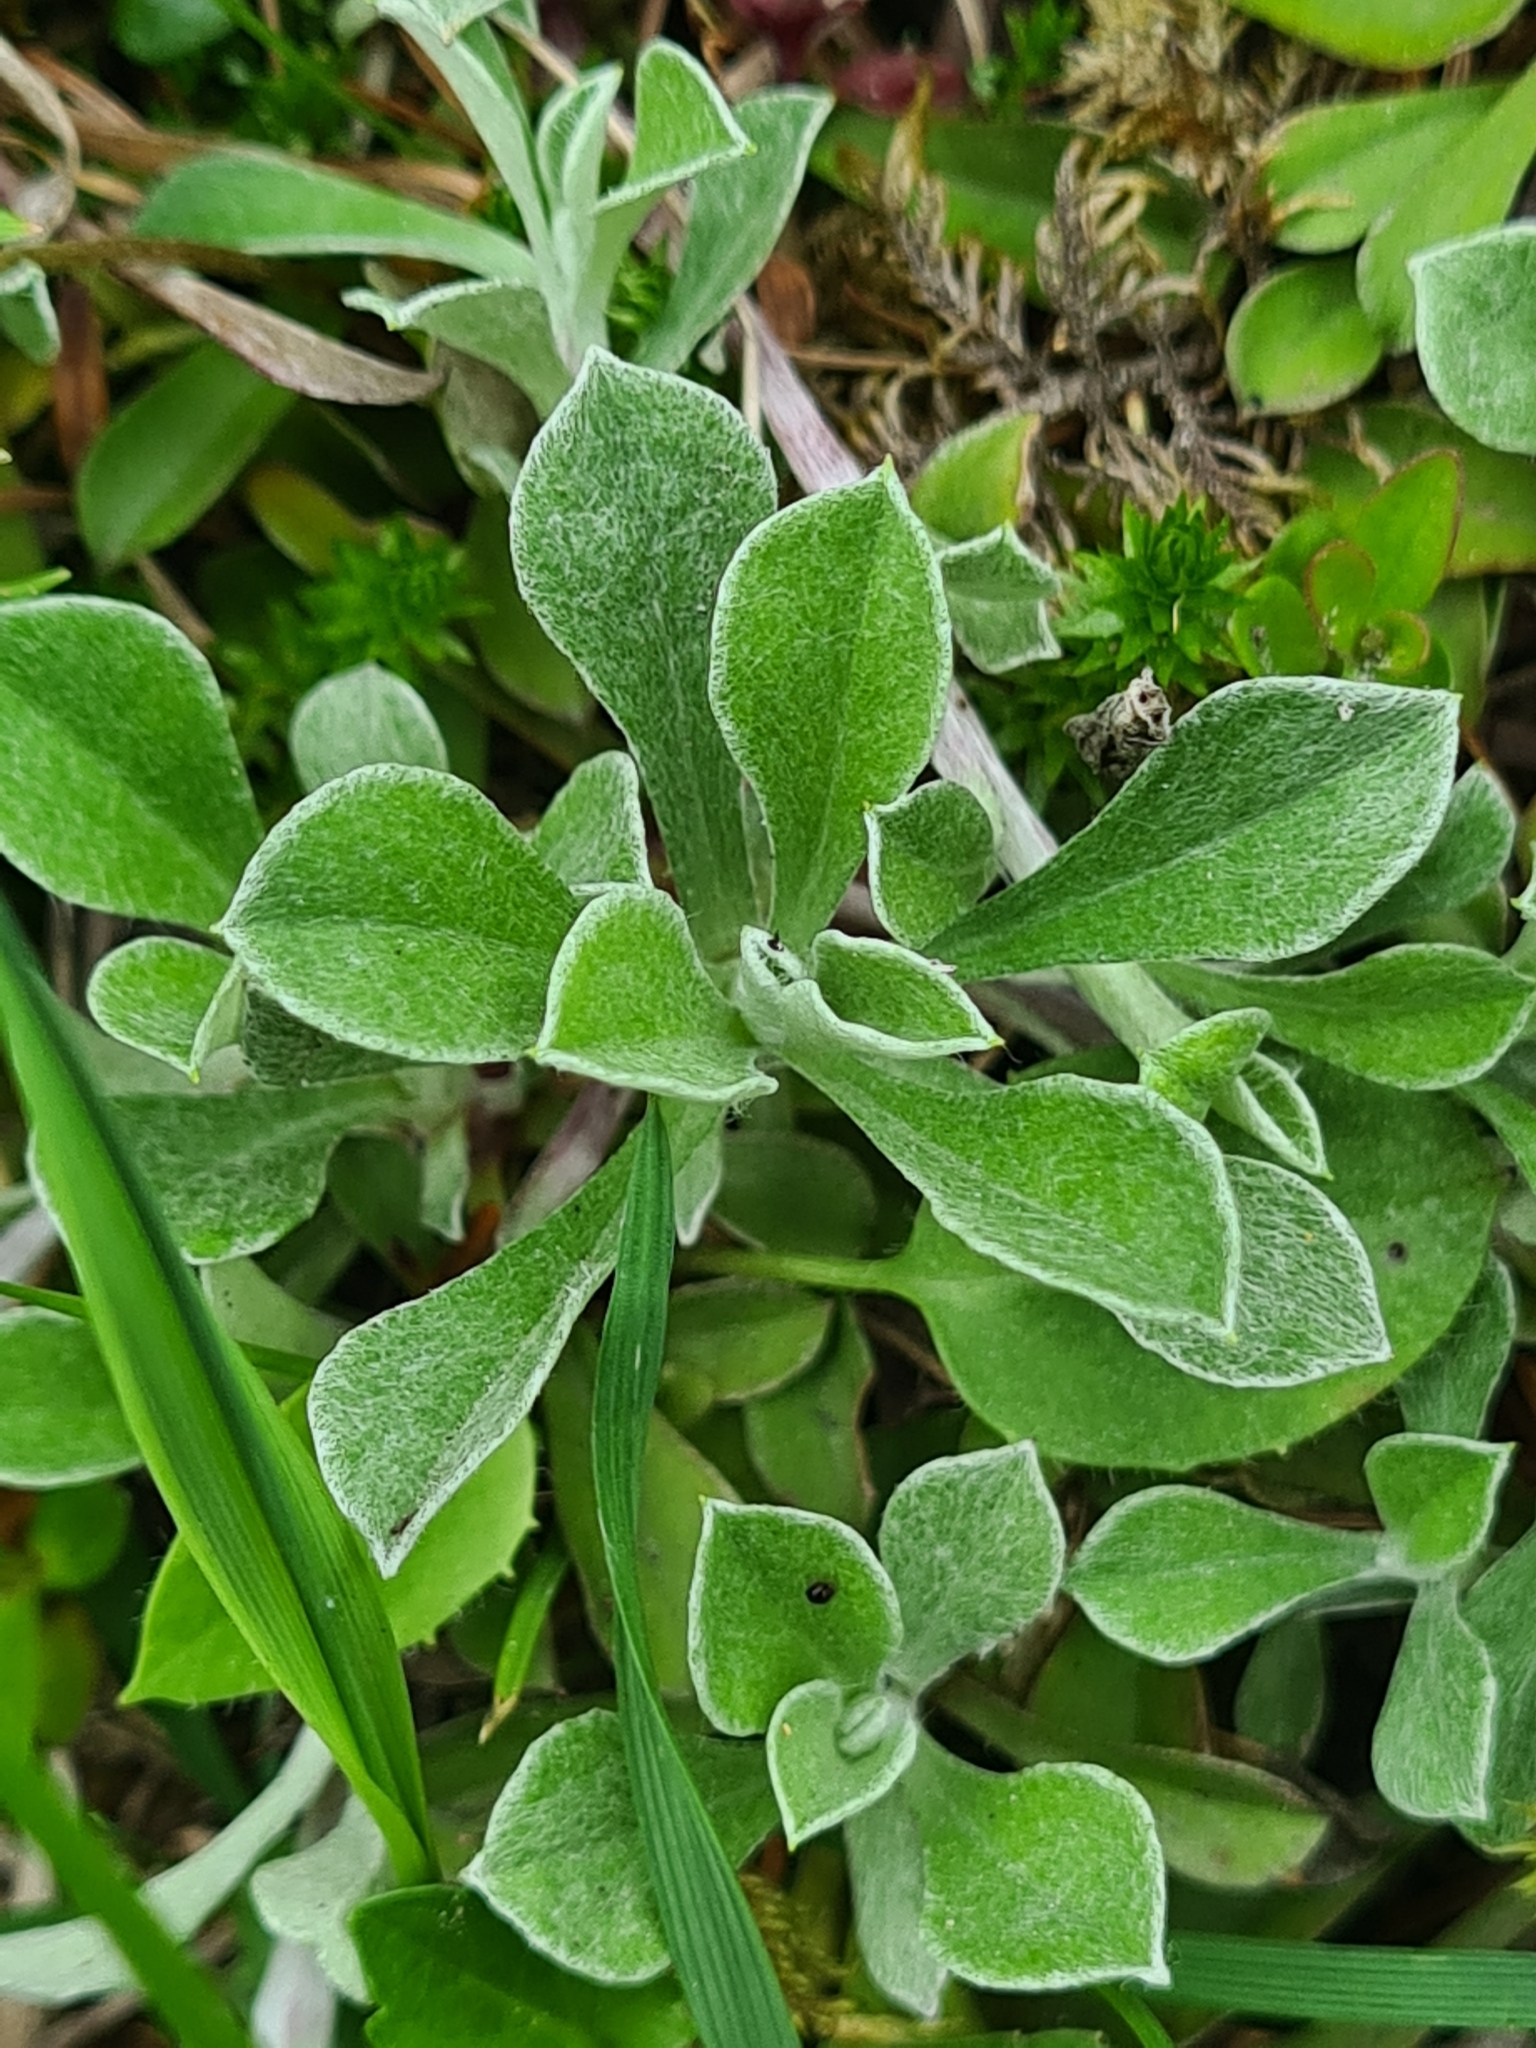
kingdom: Plantae
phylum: Tracheophyta
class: Magnoliopsida
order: Asterales
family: Asteraceae
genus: Antennaria
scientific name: Antennaria dioica
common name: Mountain everlasting
